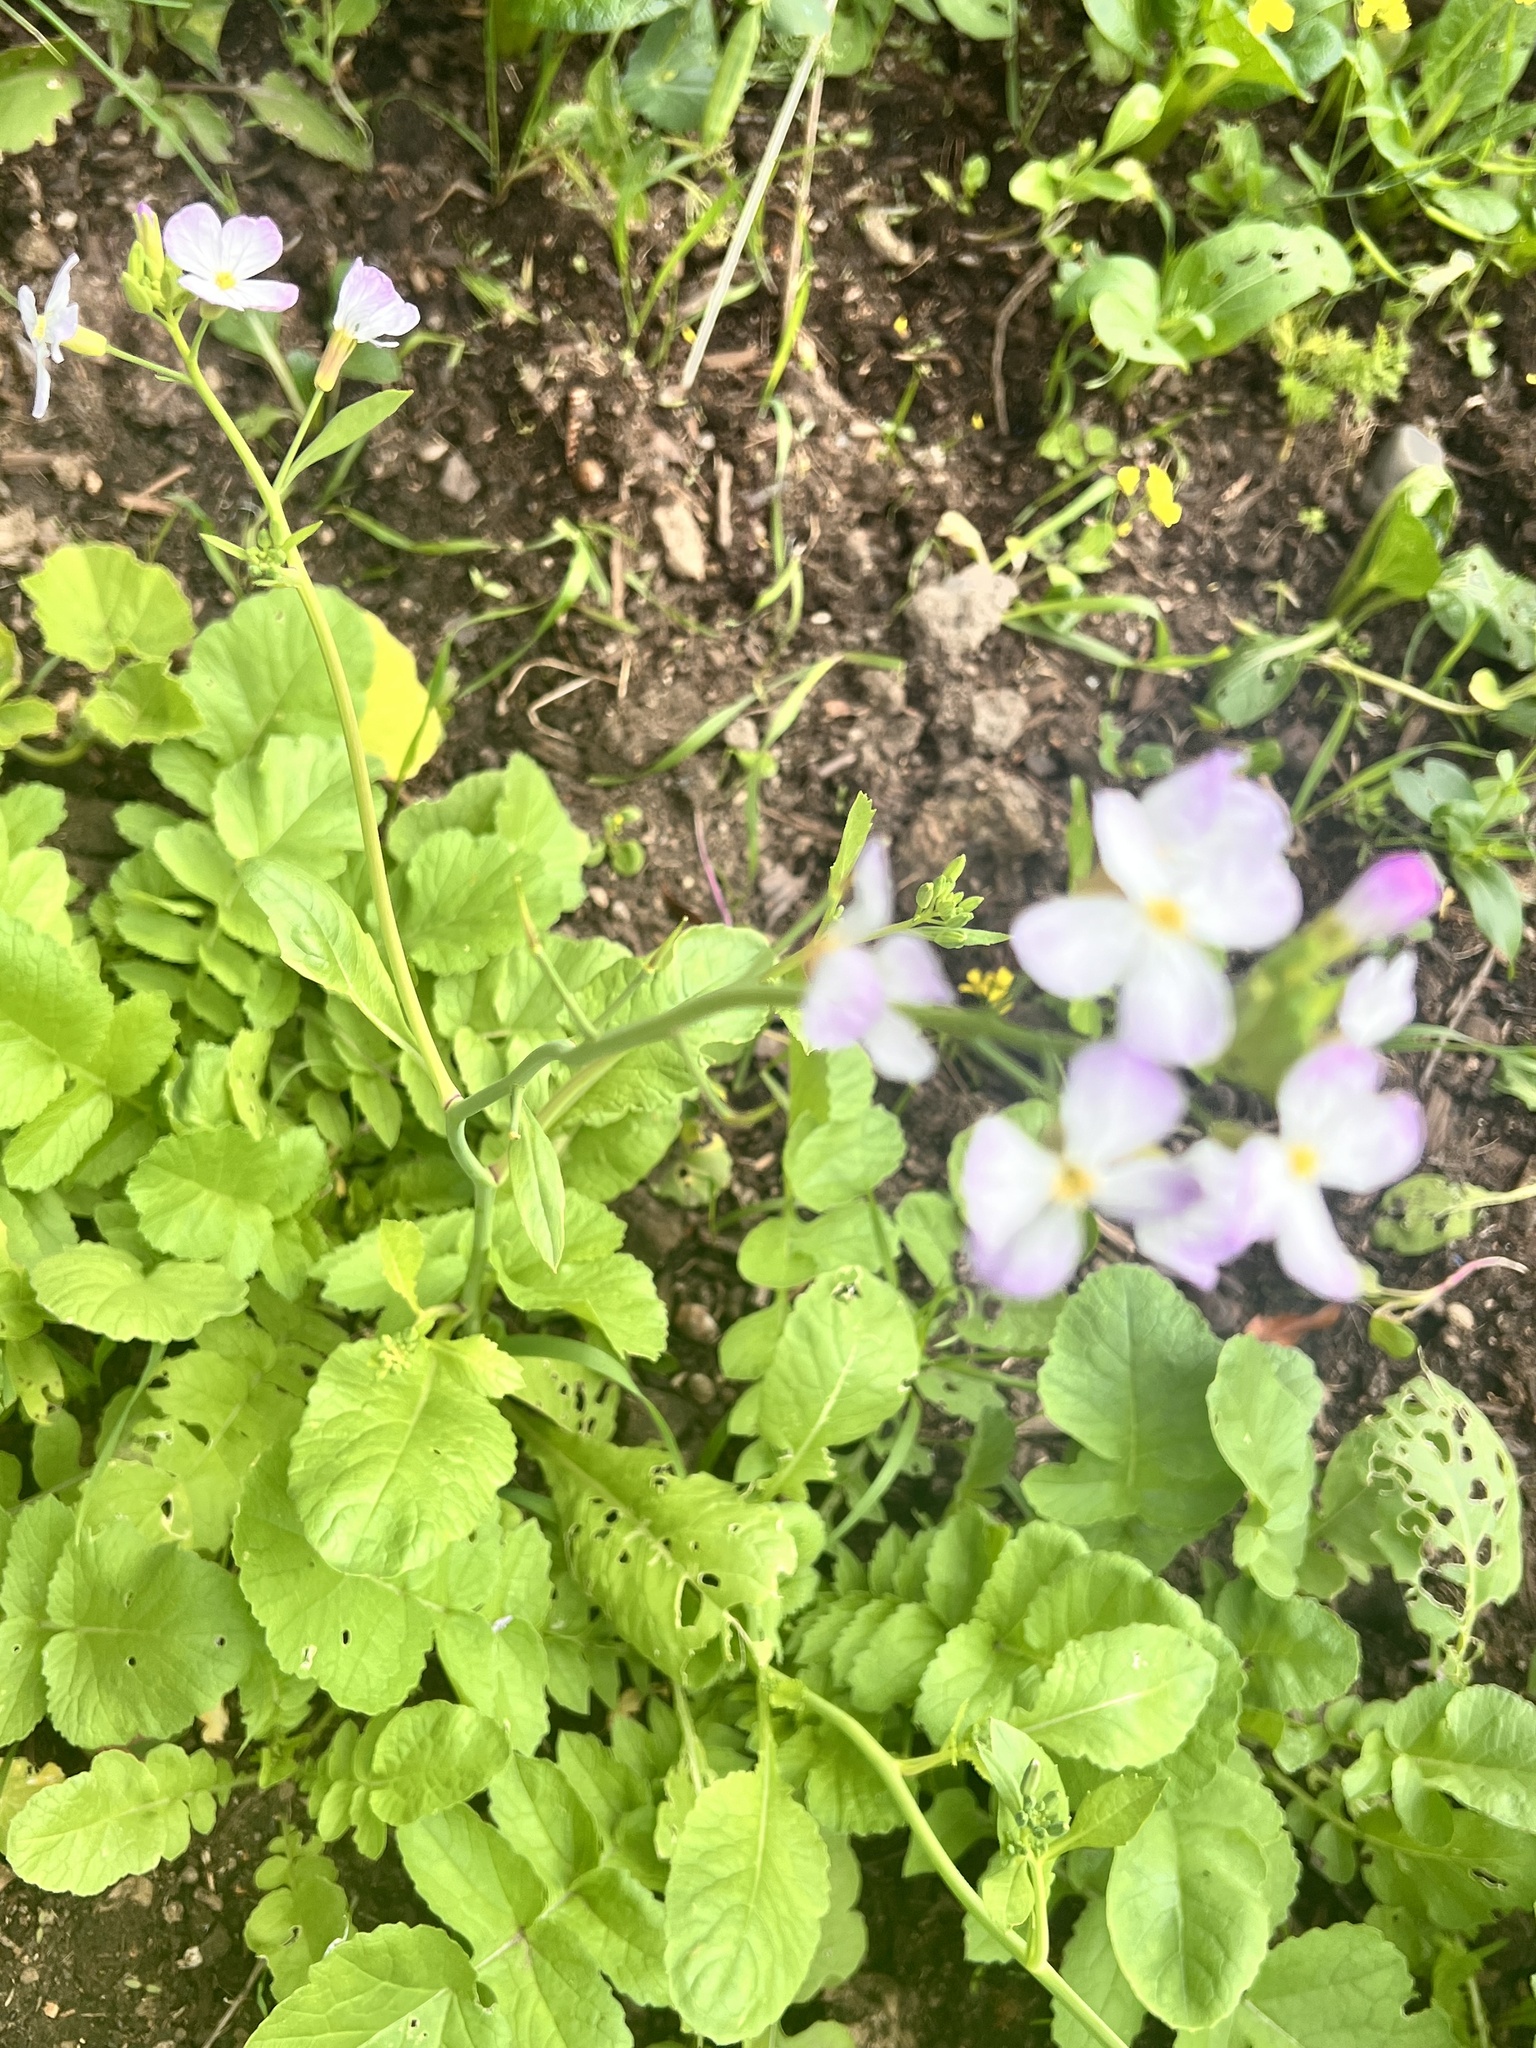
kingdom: Plantae
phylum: Tracheophyta
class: Magnoliopsida
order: Brassicales
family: Brassicaceae
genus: Raphanus
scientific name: Raphanus sativus
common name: Cultivated radish
